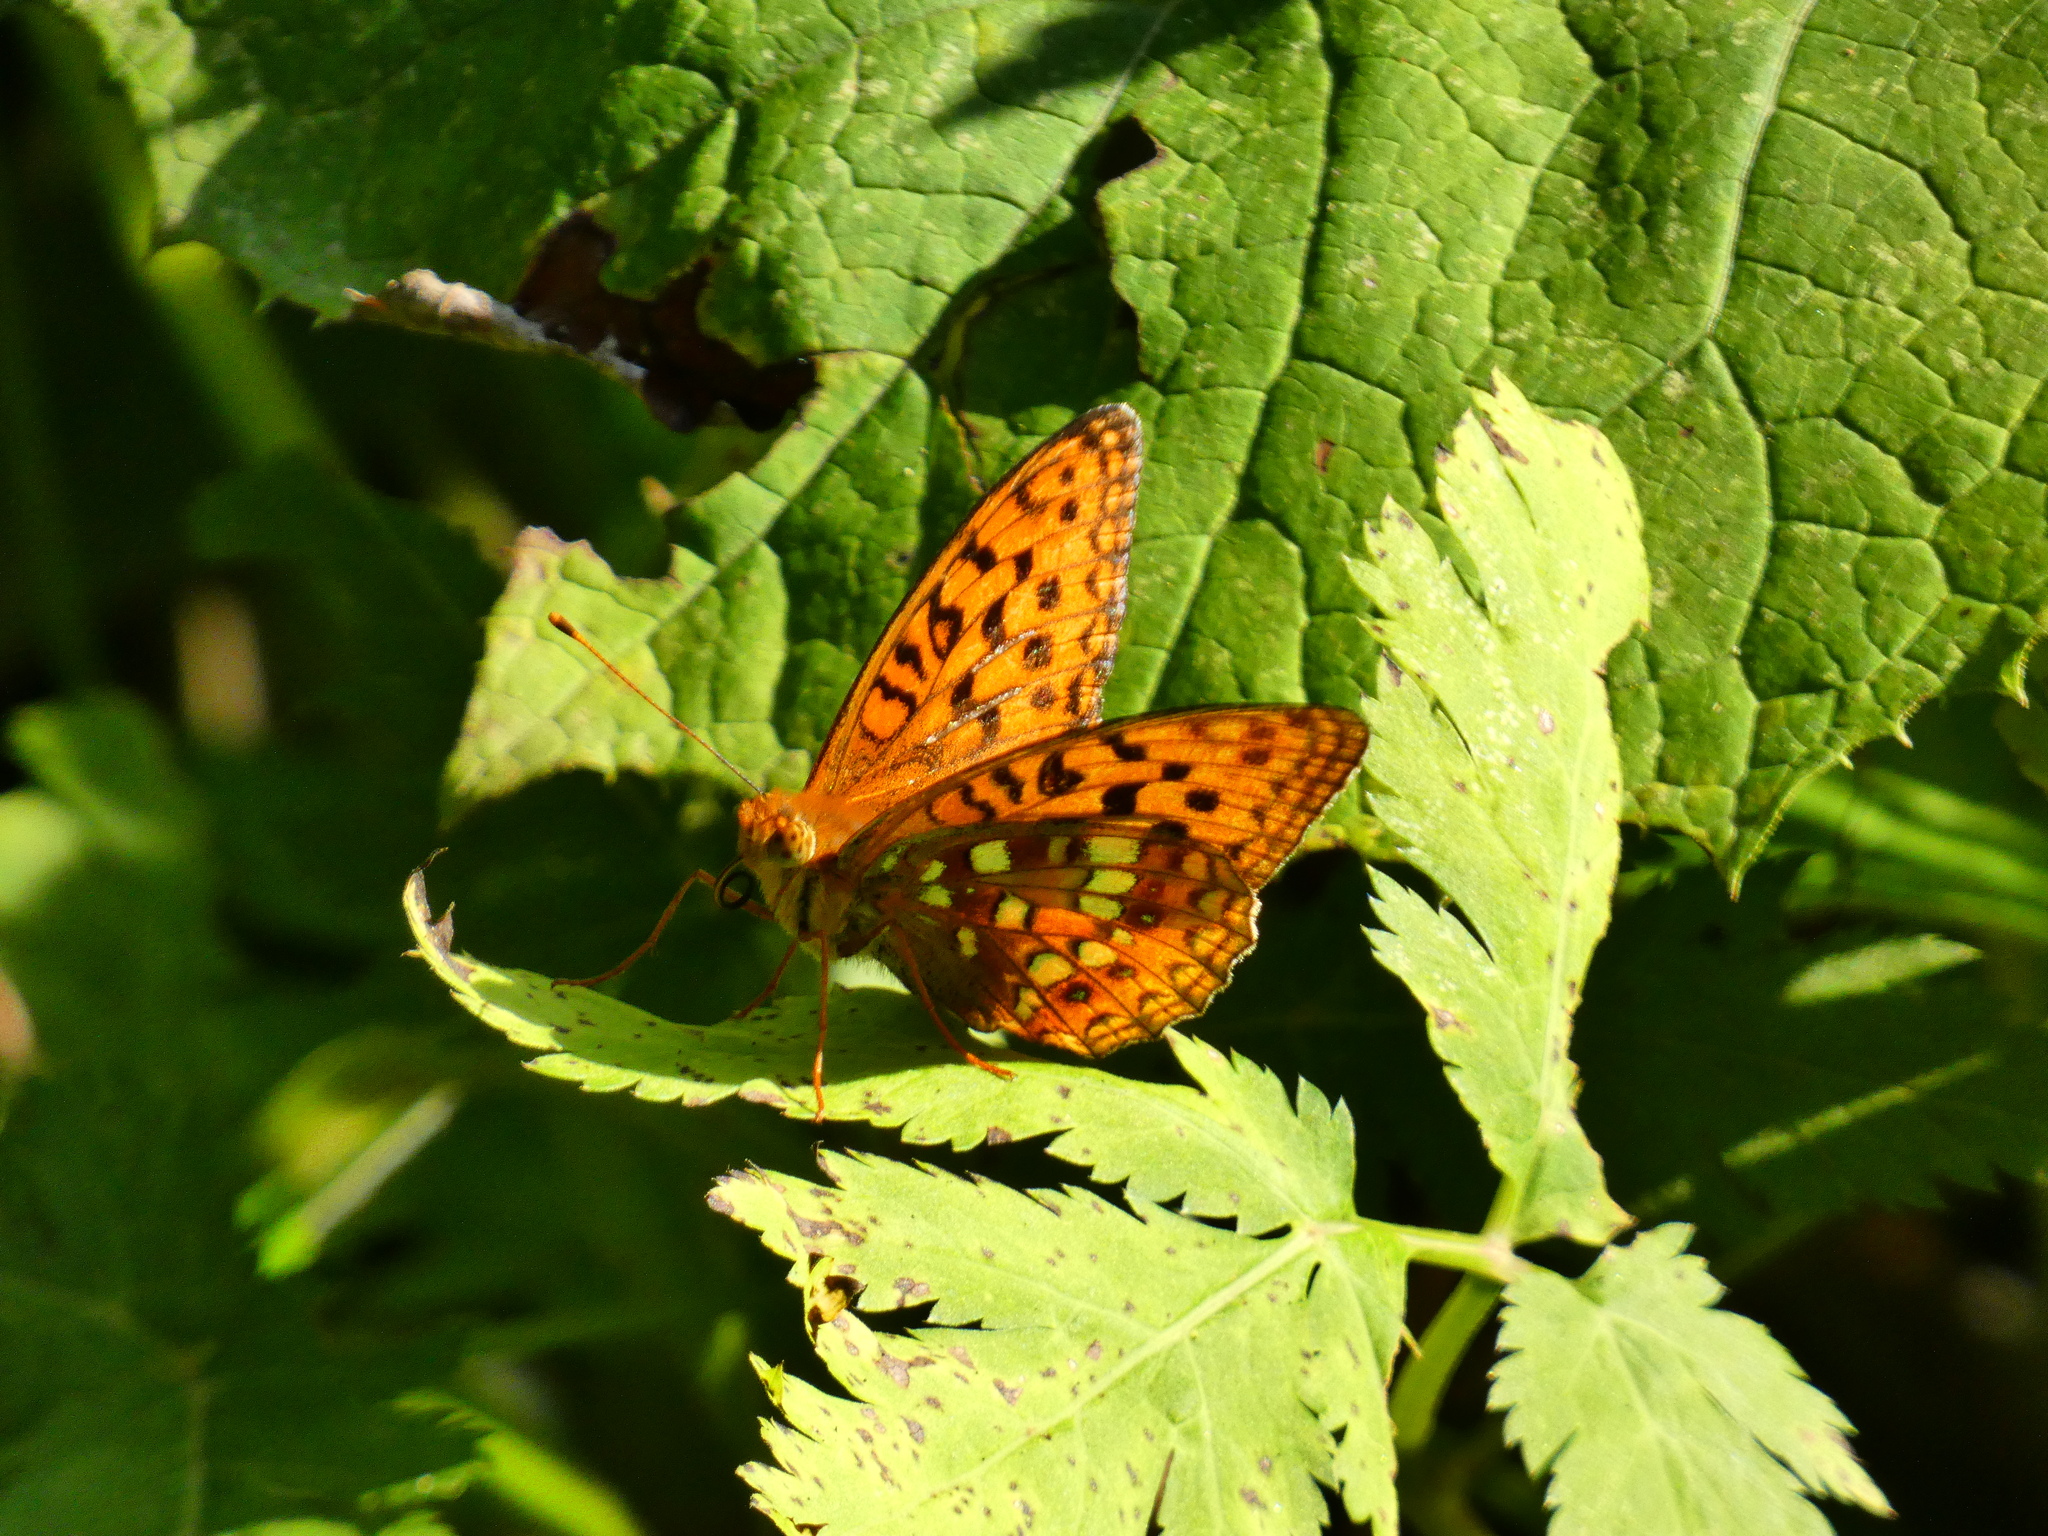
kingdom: Animalia
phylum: Arthropoda
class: Insecta
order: Lepidoptera
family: Nymphalidae
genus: Fabriciana
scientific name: Fabriciana adippe
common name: High brown fritillary
